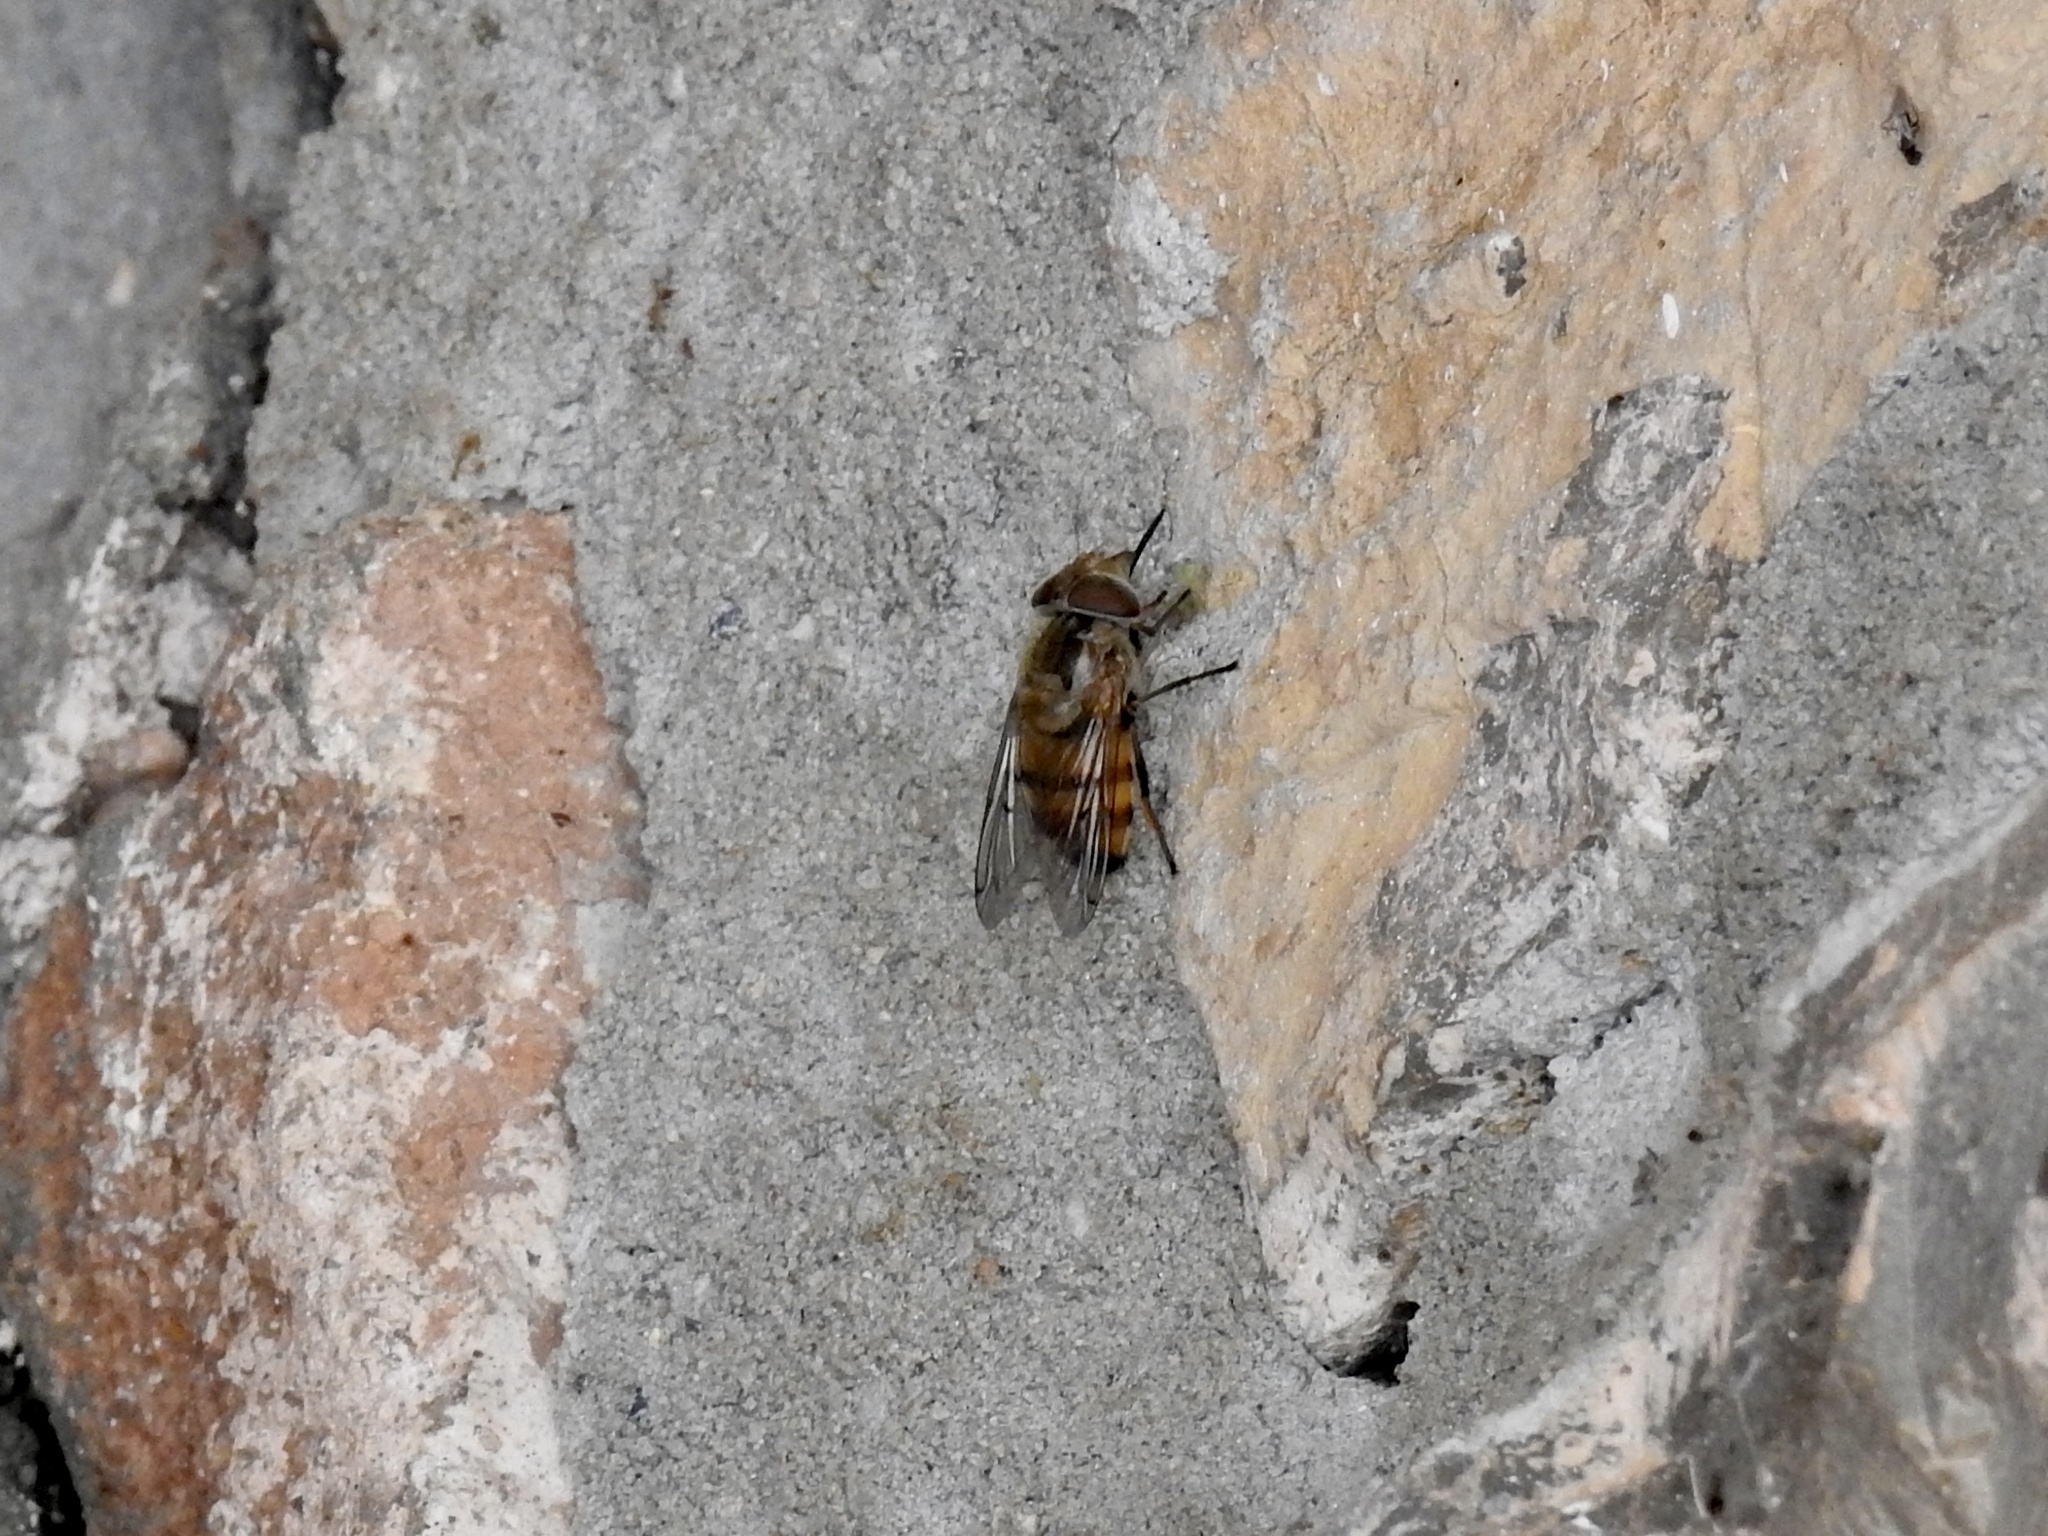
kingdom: Animalia
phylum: Arthropoda
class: Insecta
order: Diptera
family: Syrphidae
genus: Copestylum
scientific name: Copestylum haagii
